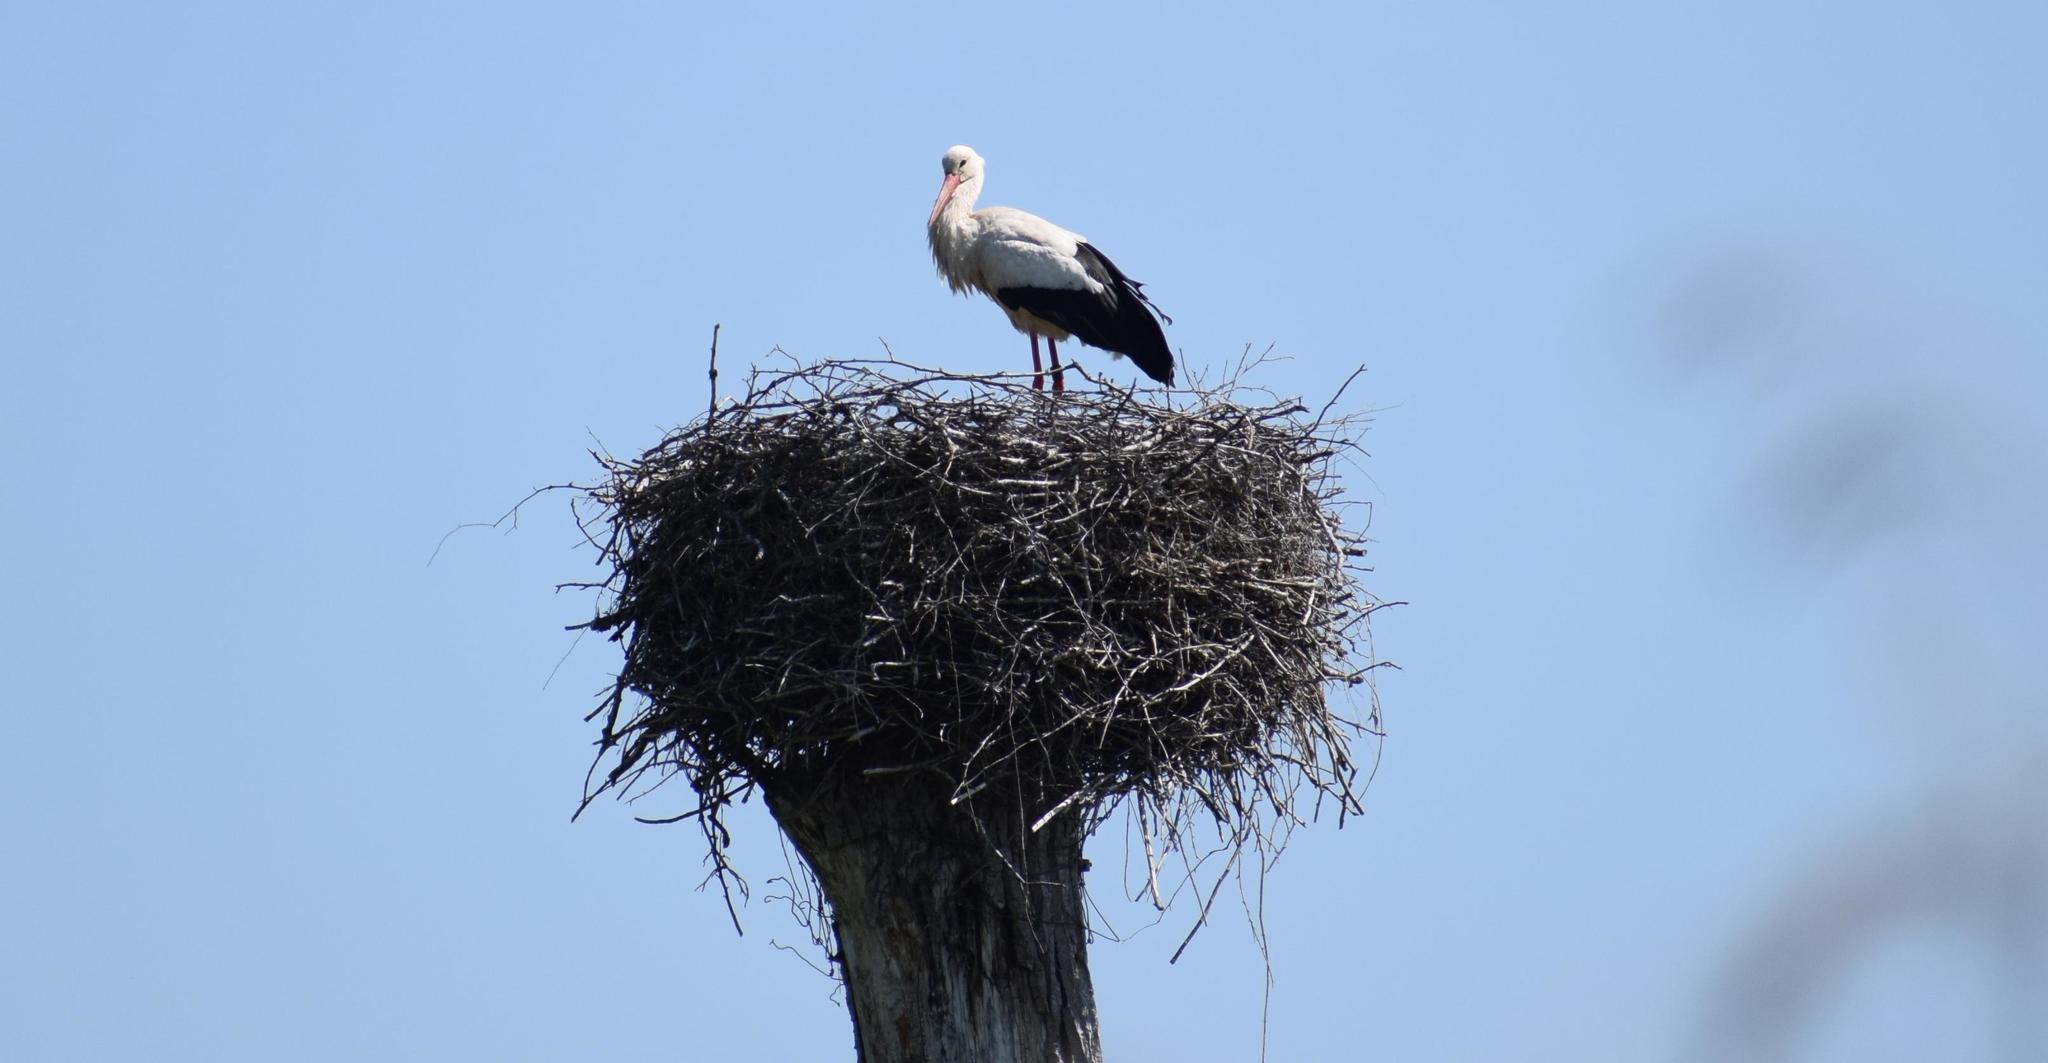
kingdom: Animalia
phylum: Chordata
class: Aves
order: Ciconiiformes
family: Ciconiidae
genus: Ciconia
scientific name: Ciconia ciconia
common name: White stork
